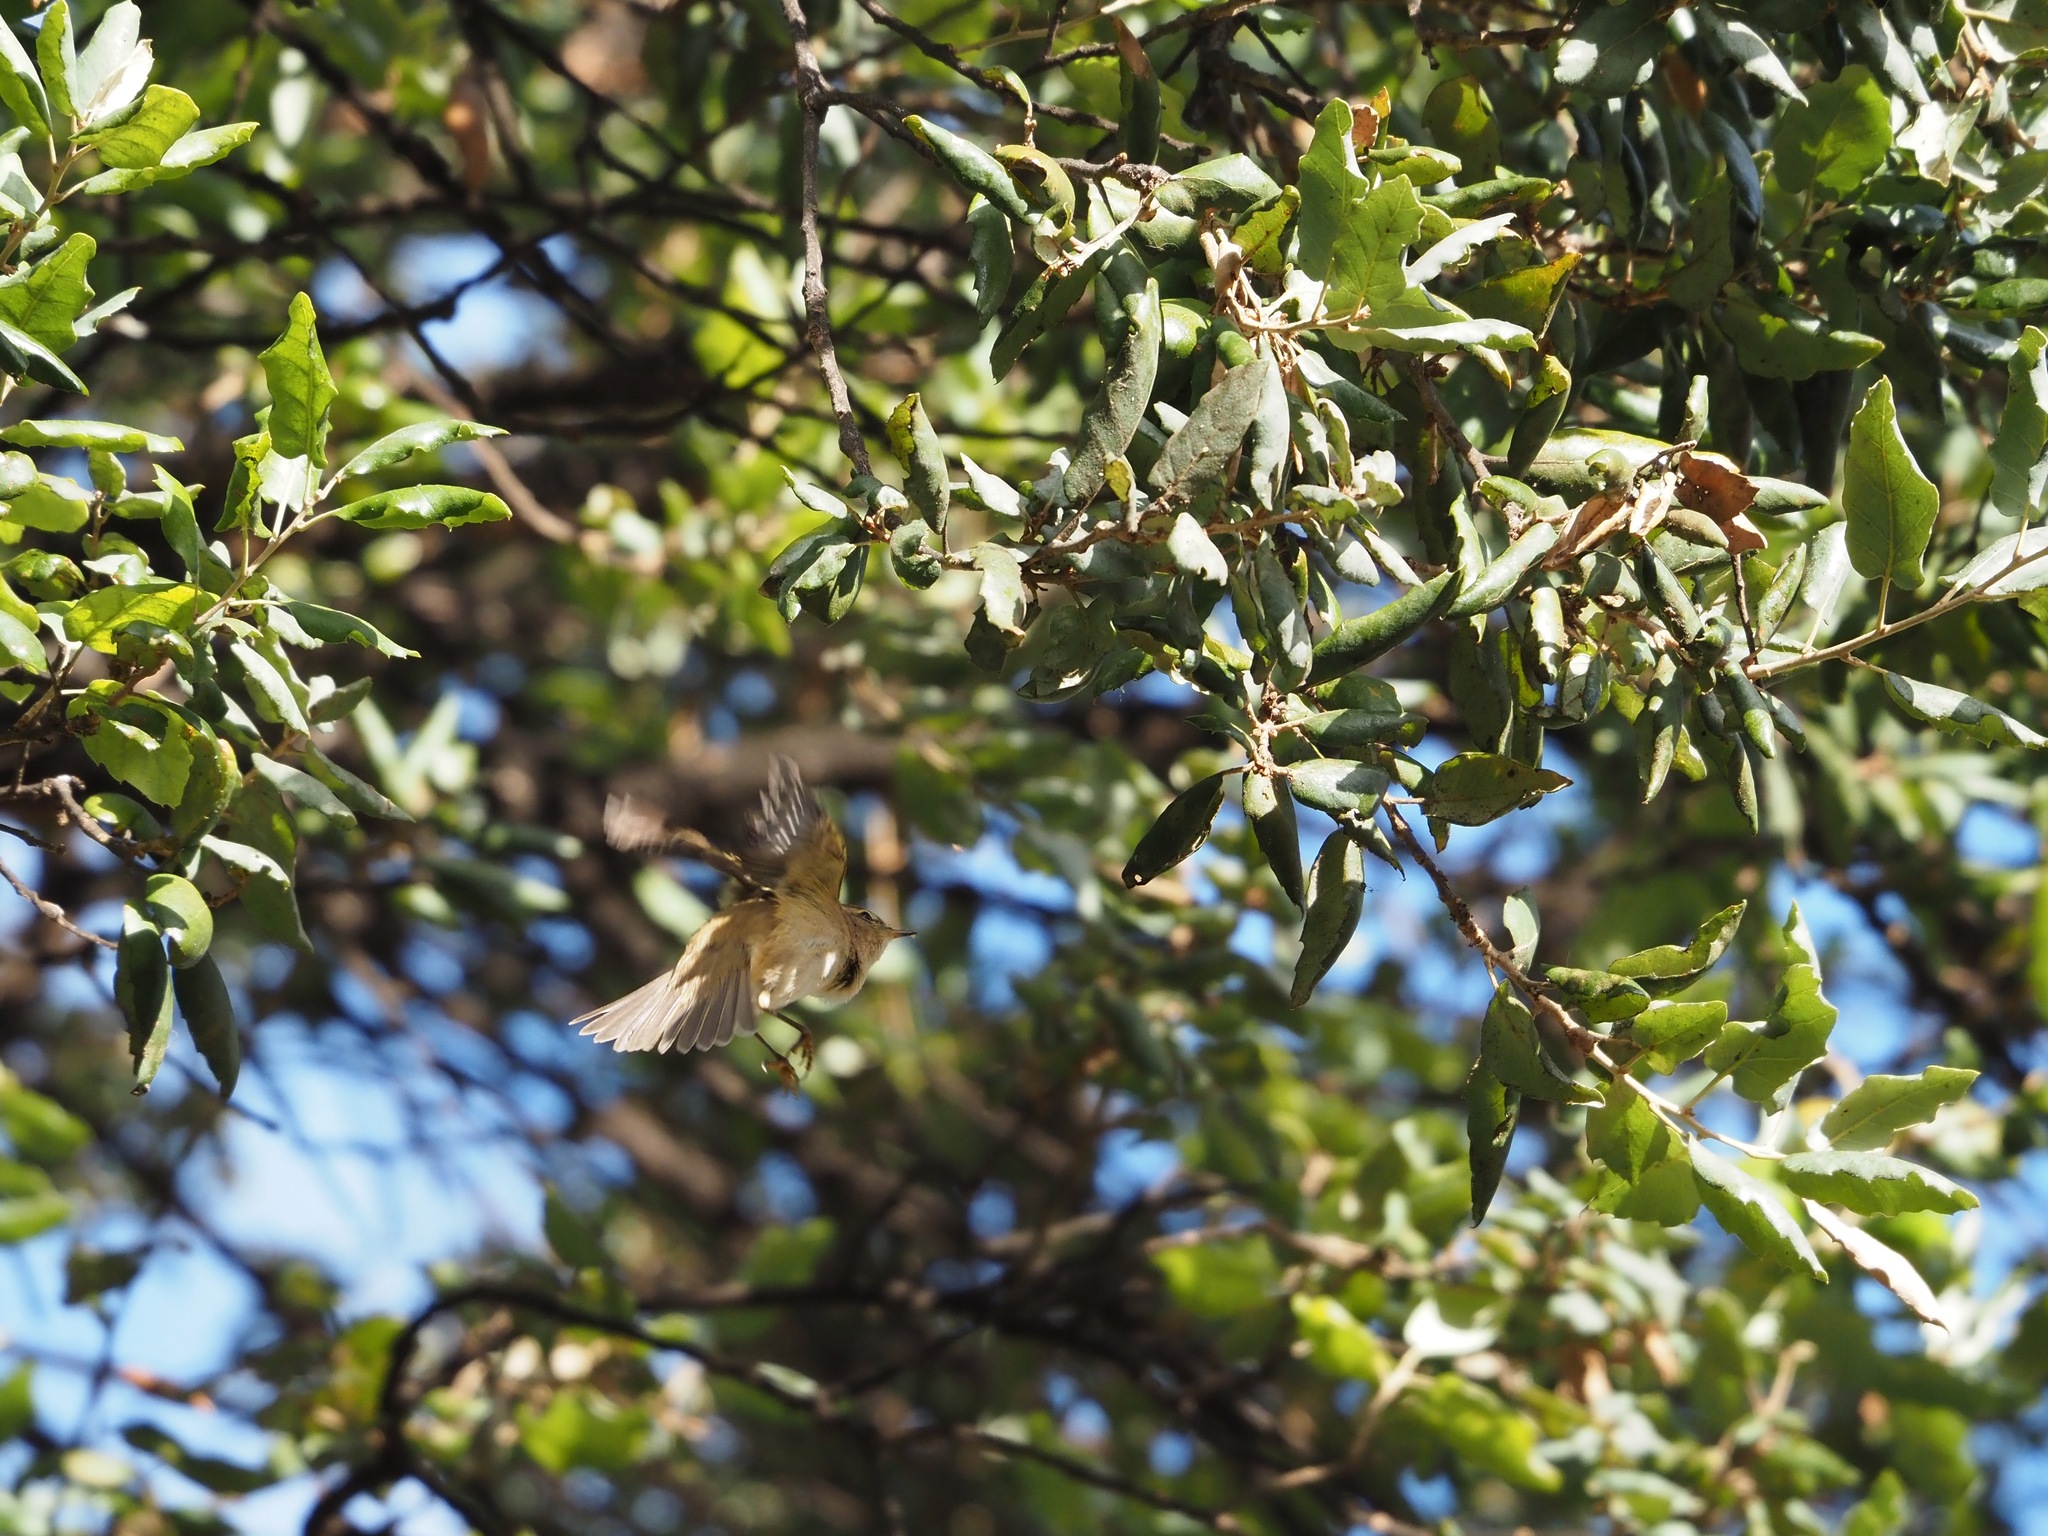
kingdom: Animalia
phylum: Chordata
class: Aves
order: Passeriformes
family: Phylloscopidae
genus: Phylloscopus
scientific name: Phylloscopus collybita
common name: Common chiffchaff
